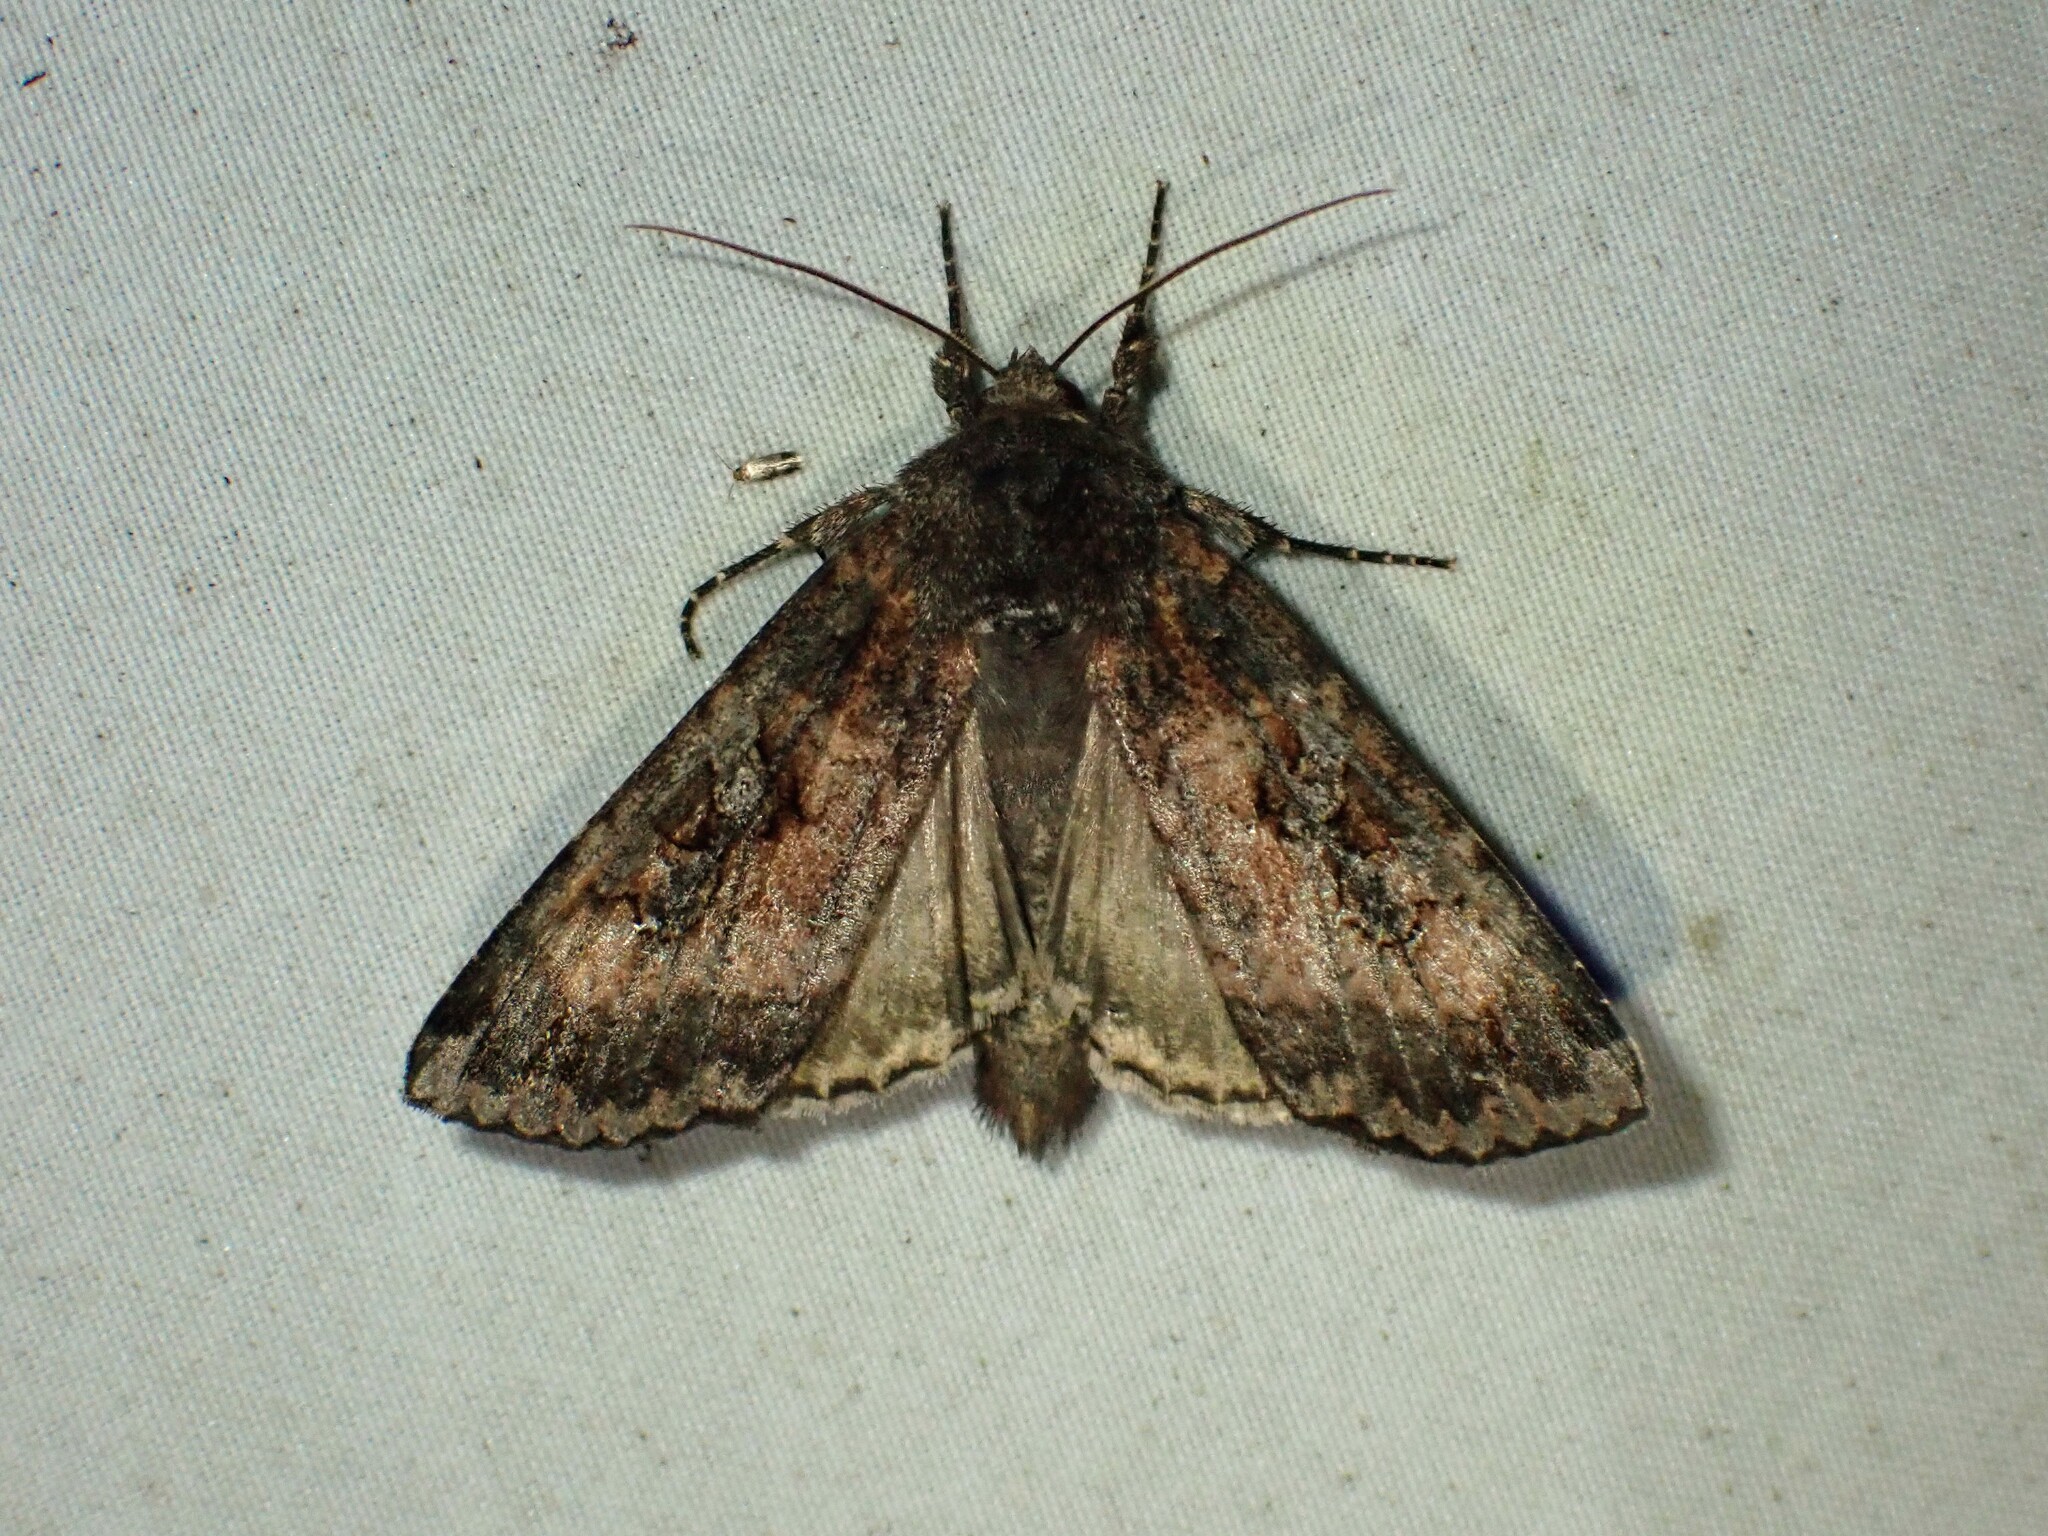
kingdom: Animalia
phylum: Arthropoda
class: Insecta
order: Lepidoptera
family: Noctuidae
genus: Eurois
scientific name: Eurois astricta
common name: Great brown dart
